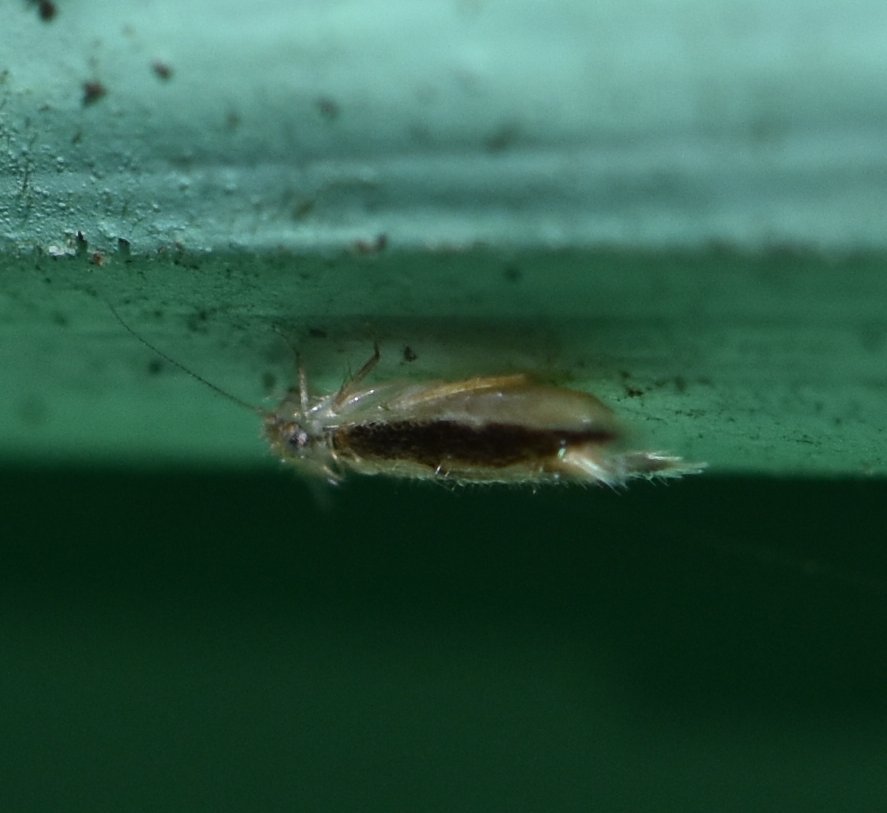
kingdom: Animalia
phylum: Arthropoda
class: Insecta
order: Psocodea
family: Lepidopsocidae
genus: Echmepteryx
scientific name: Echmepteryx madagascariensis
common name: Bark lice
